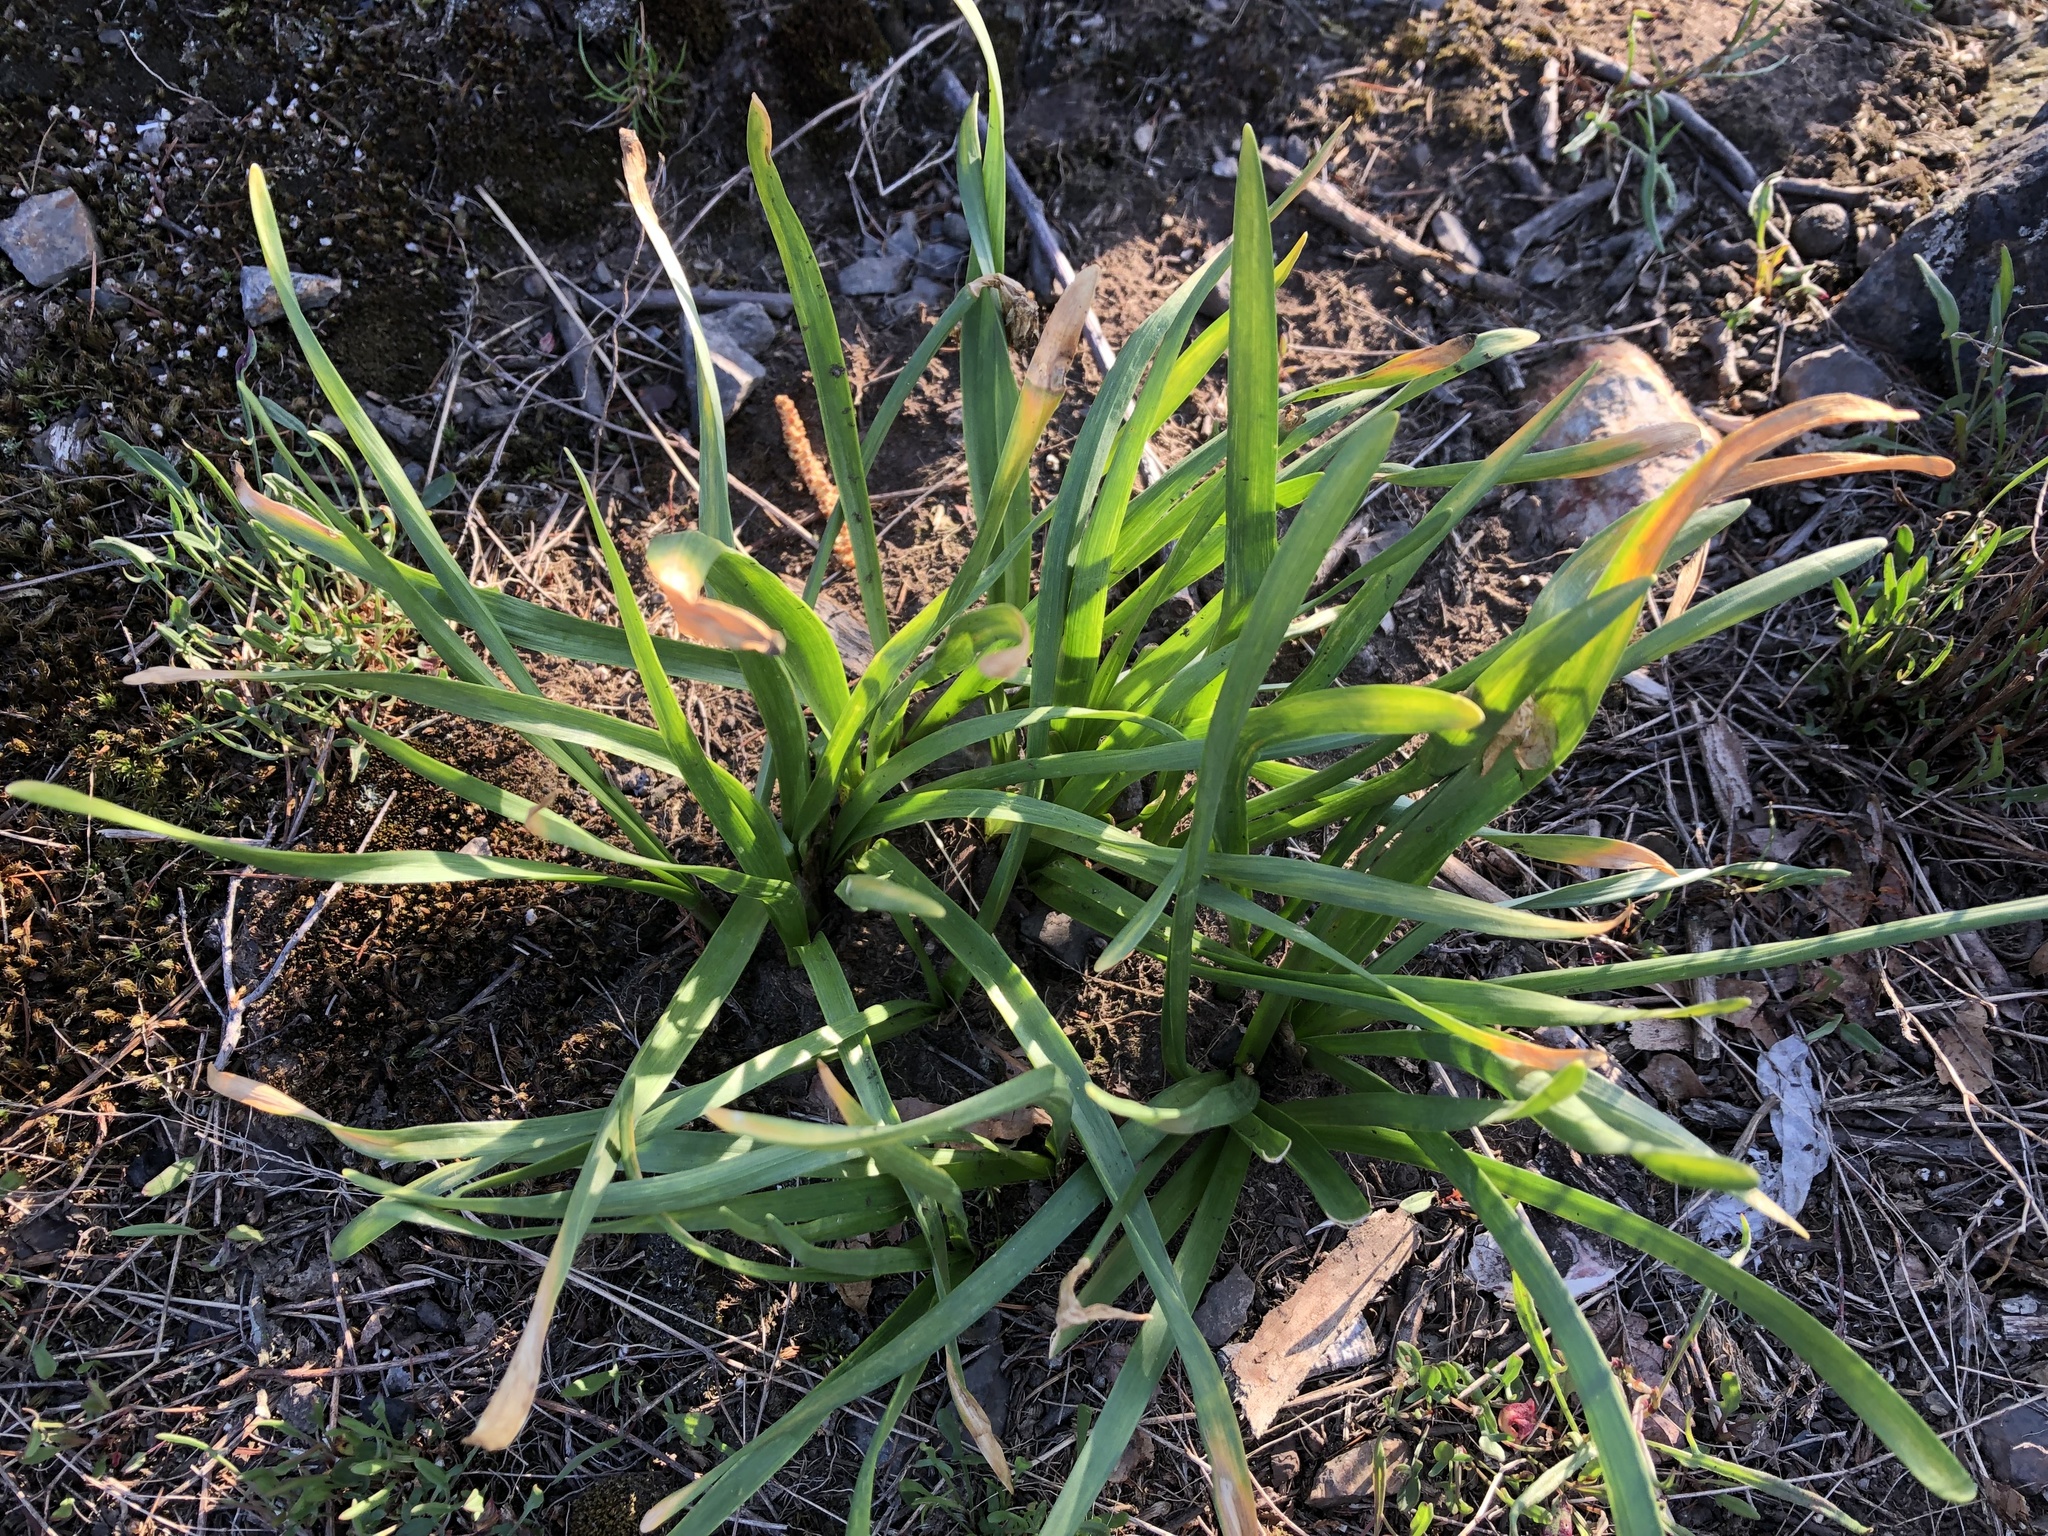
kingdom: Plantae
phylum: Tracheophyta
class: Liliopsida
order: Asparagales
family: Amaryllidaceae
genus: Allium
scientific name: Allium lusitanicum
